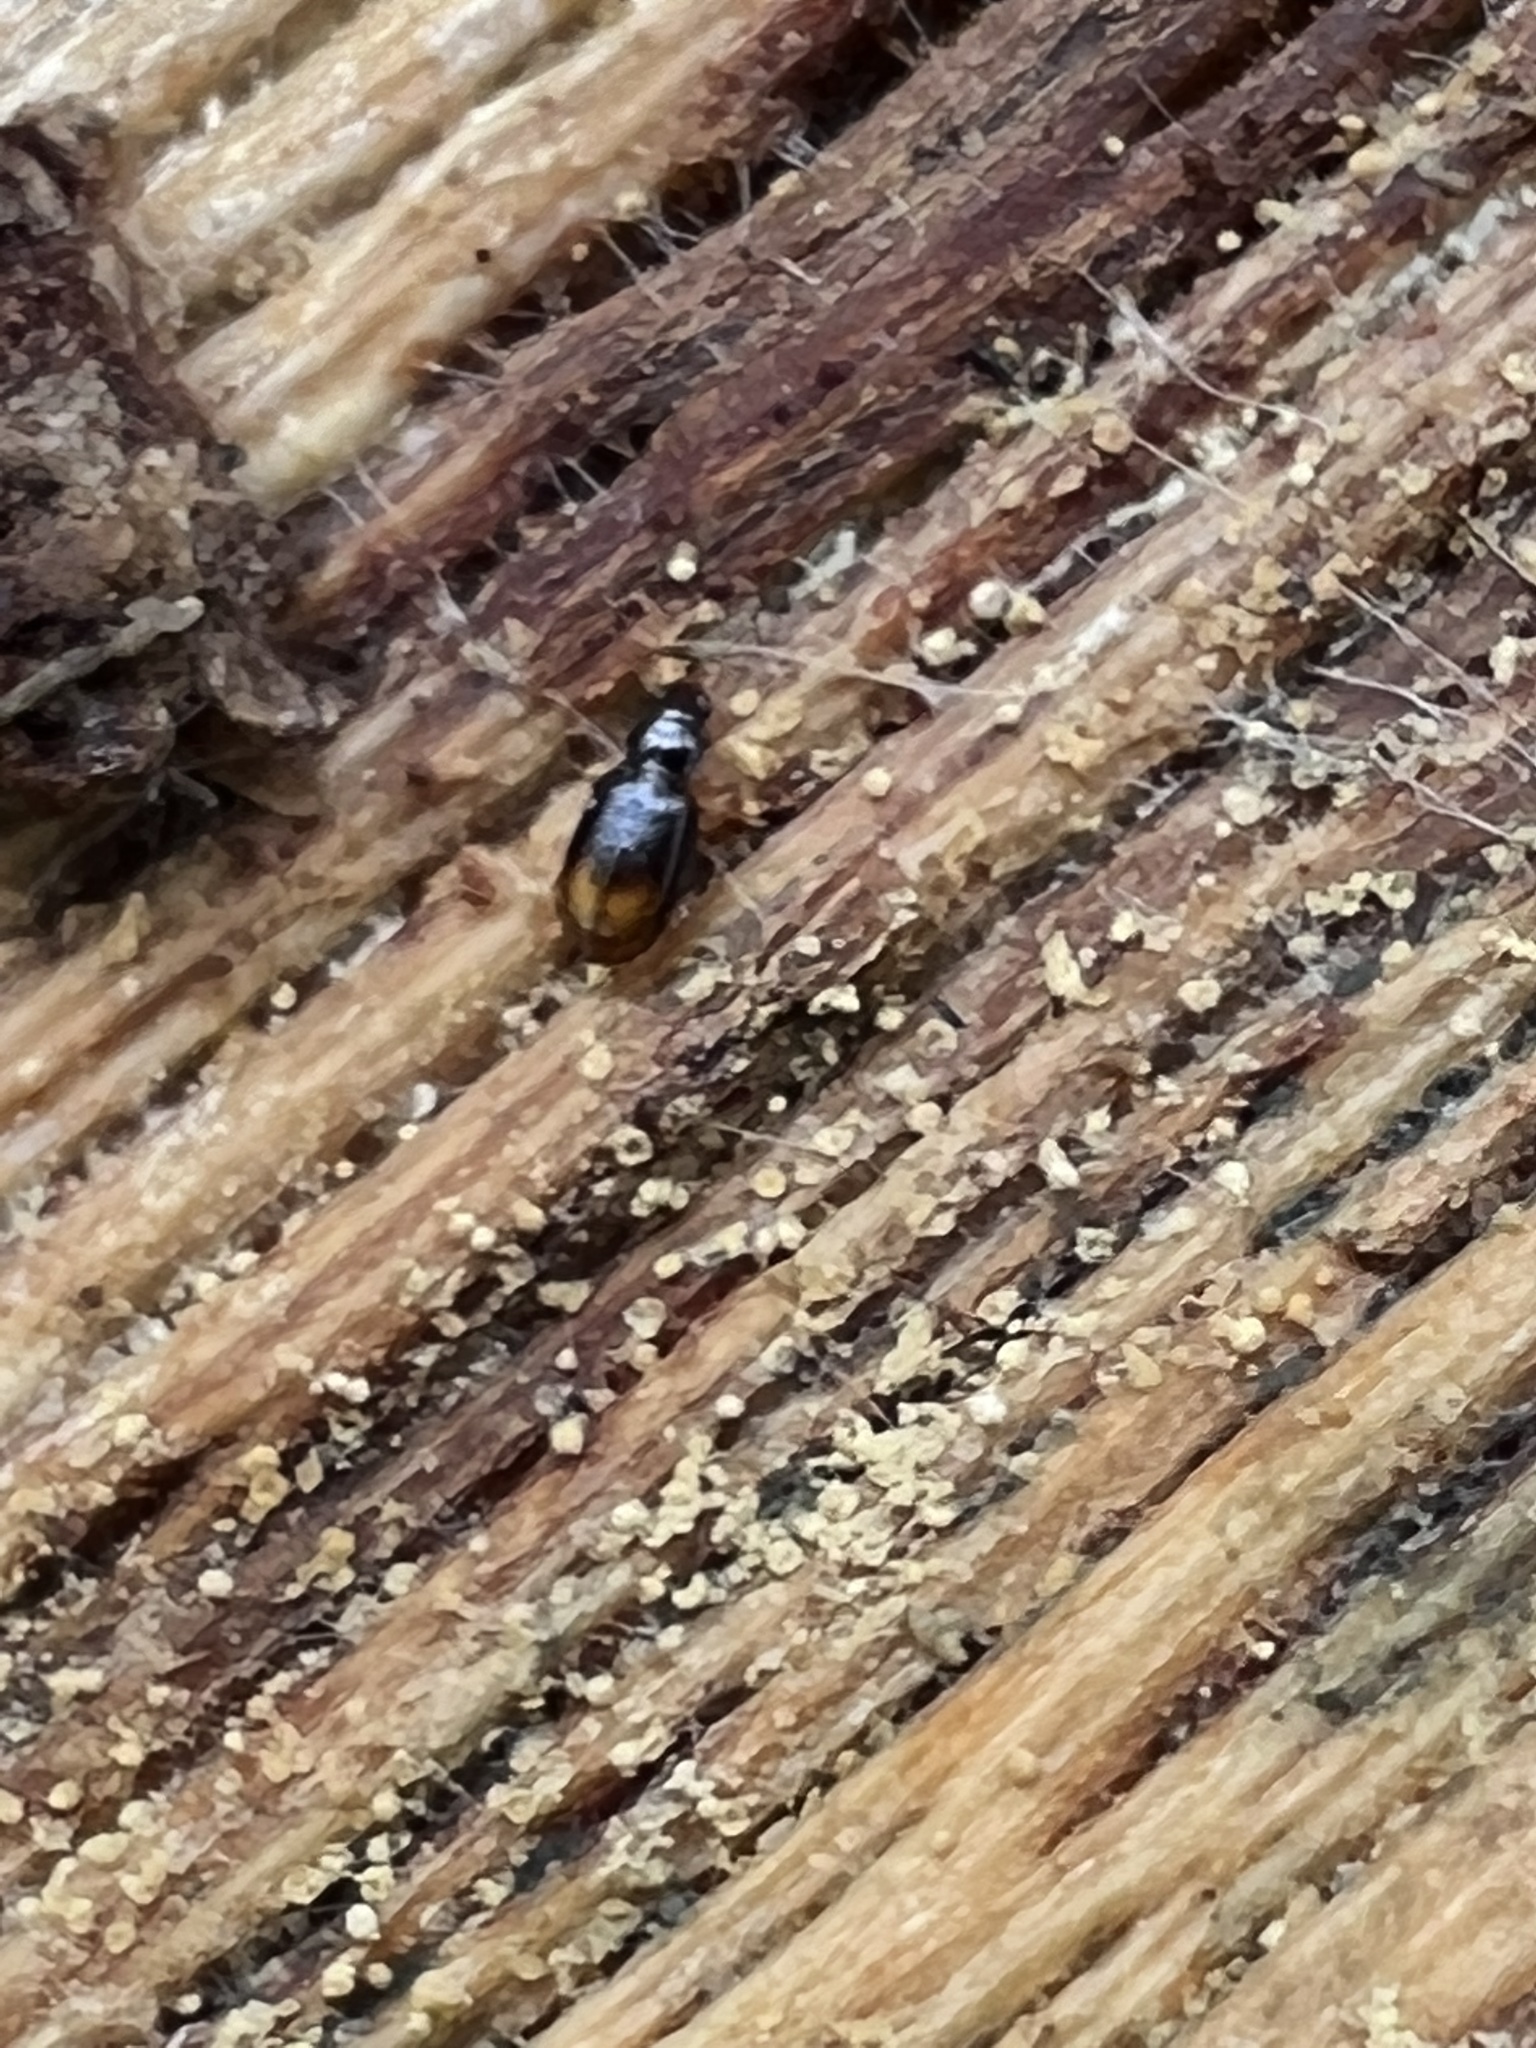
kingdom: Animalia
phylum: Arthropoda
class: Insecta
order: Coleoptera
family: Carabidae
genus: Mioptachys
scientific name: Mioptachys flavicauda
